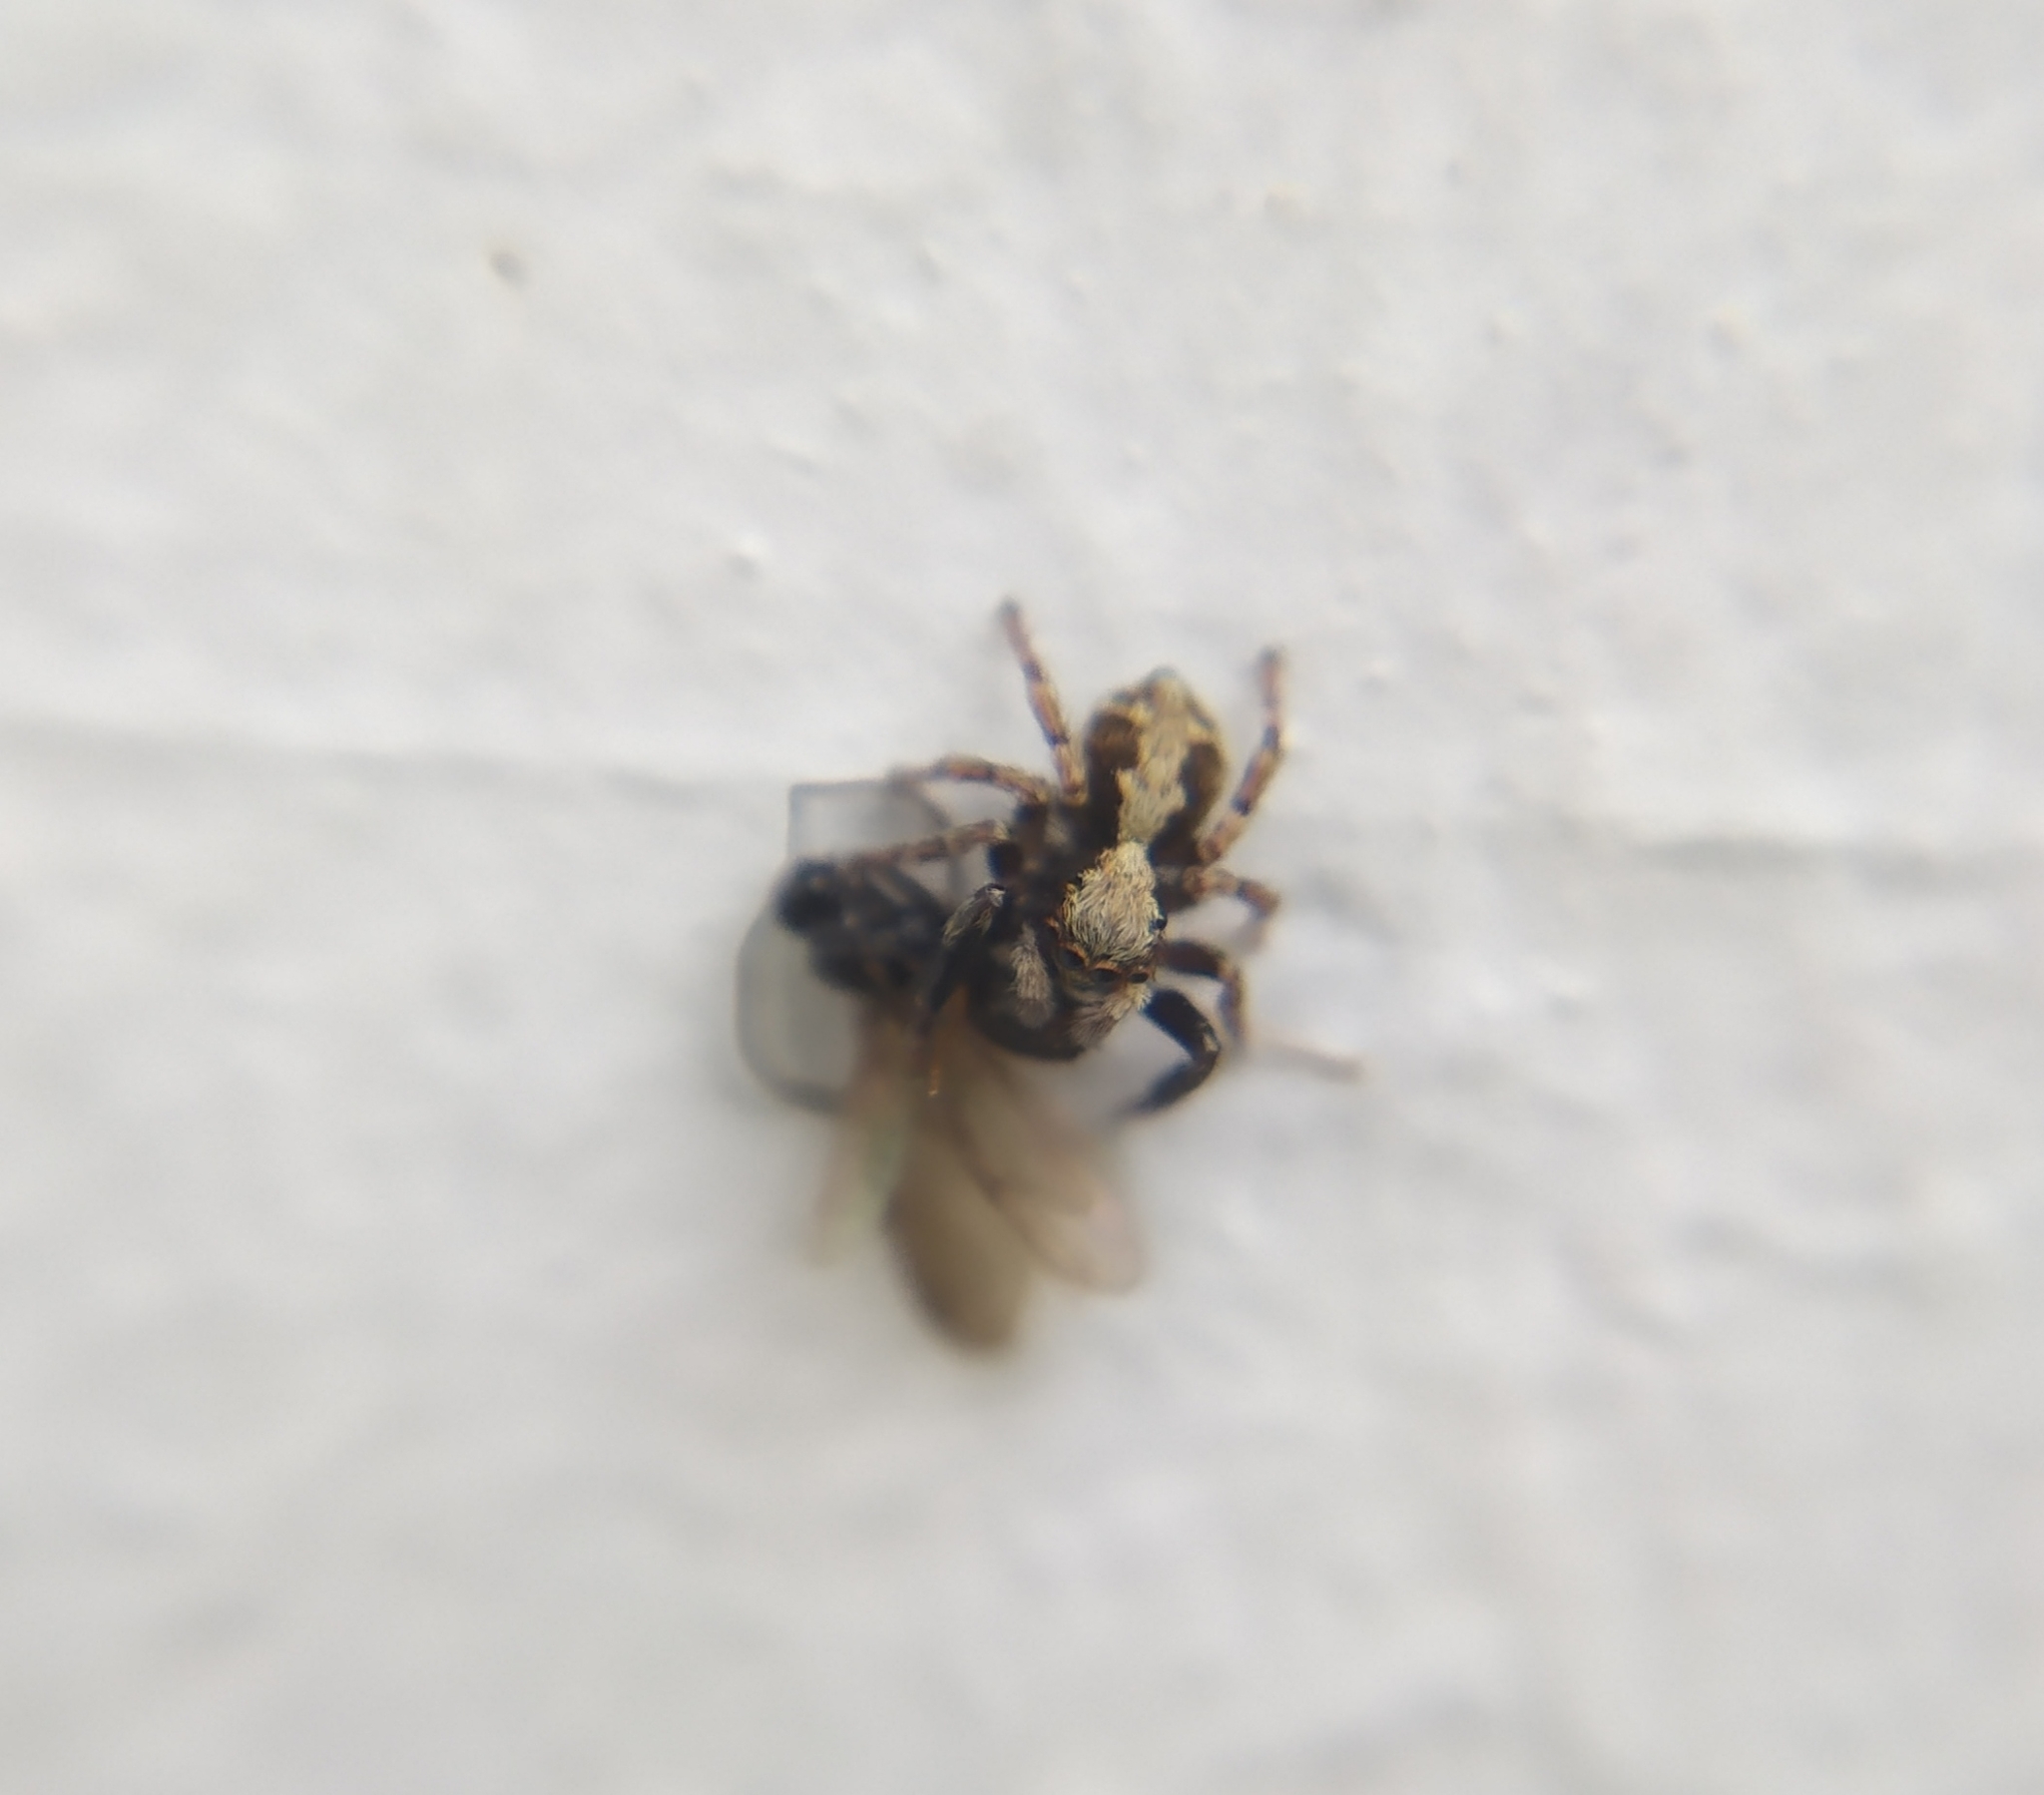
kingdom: Animalia
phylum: Arthropoda
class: Arachnida
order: Araneae
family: Salticidae
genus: Pseudeuophrys
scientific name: Pseudeuophrys lanigera
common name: Jumping spider
